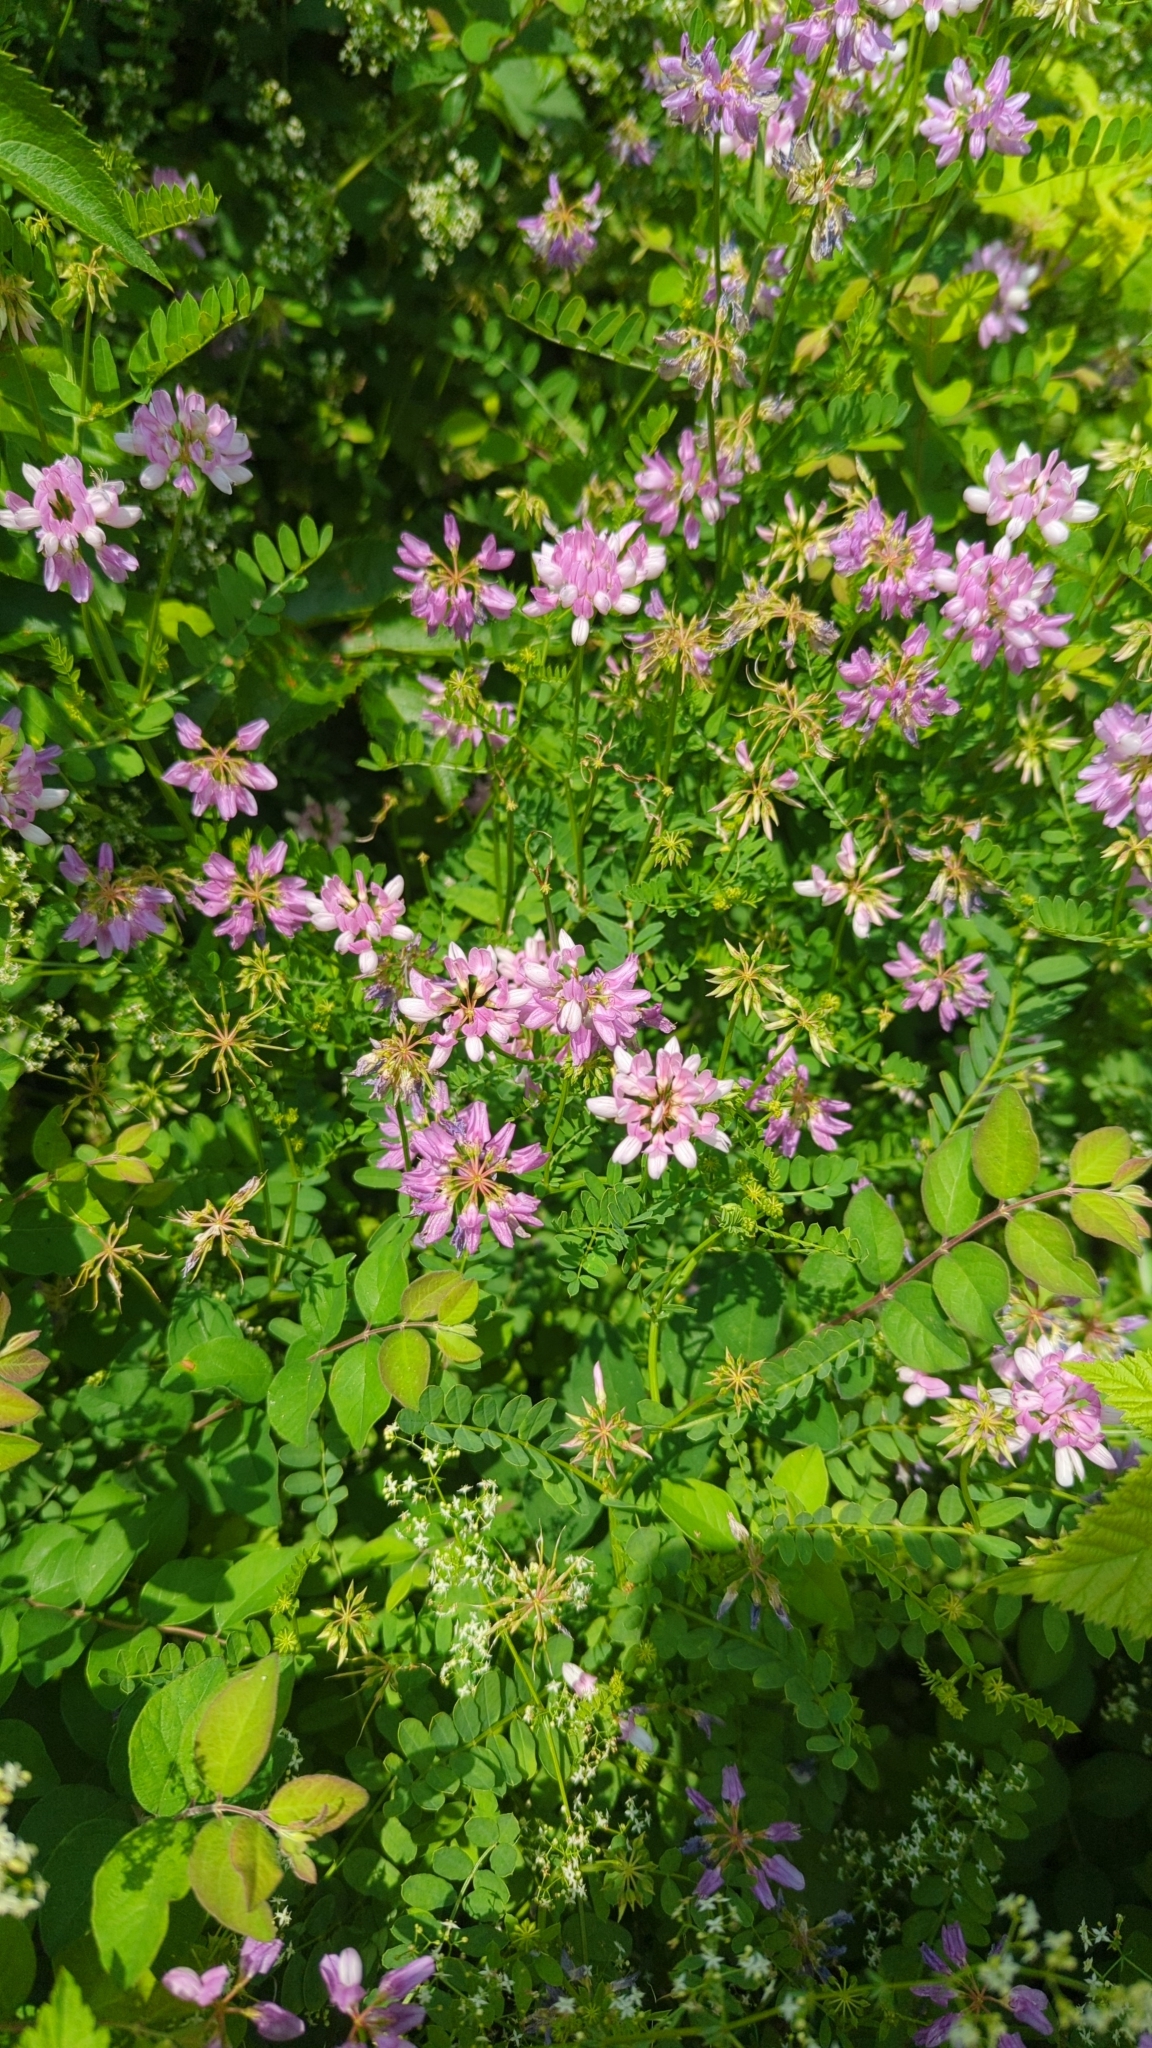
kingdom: Plantae
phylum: Tracheophyta
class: Magnoliopsida
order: Fabales
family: Fabaceae
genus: Coronilla
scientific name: Coronilla varia
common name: Crownvetch
